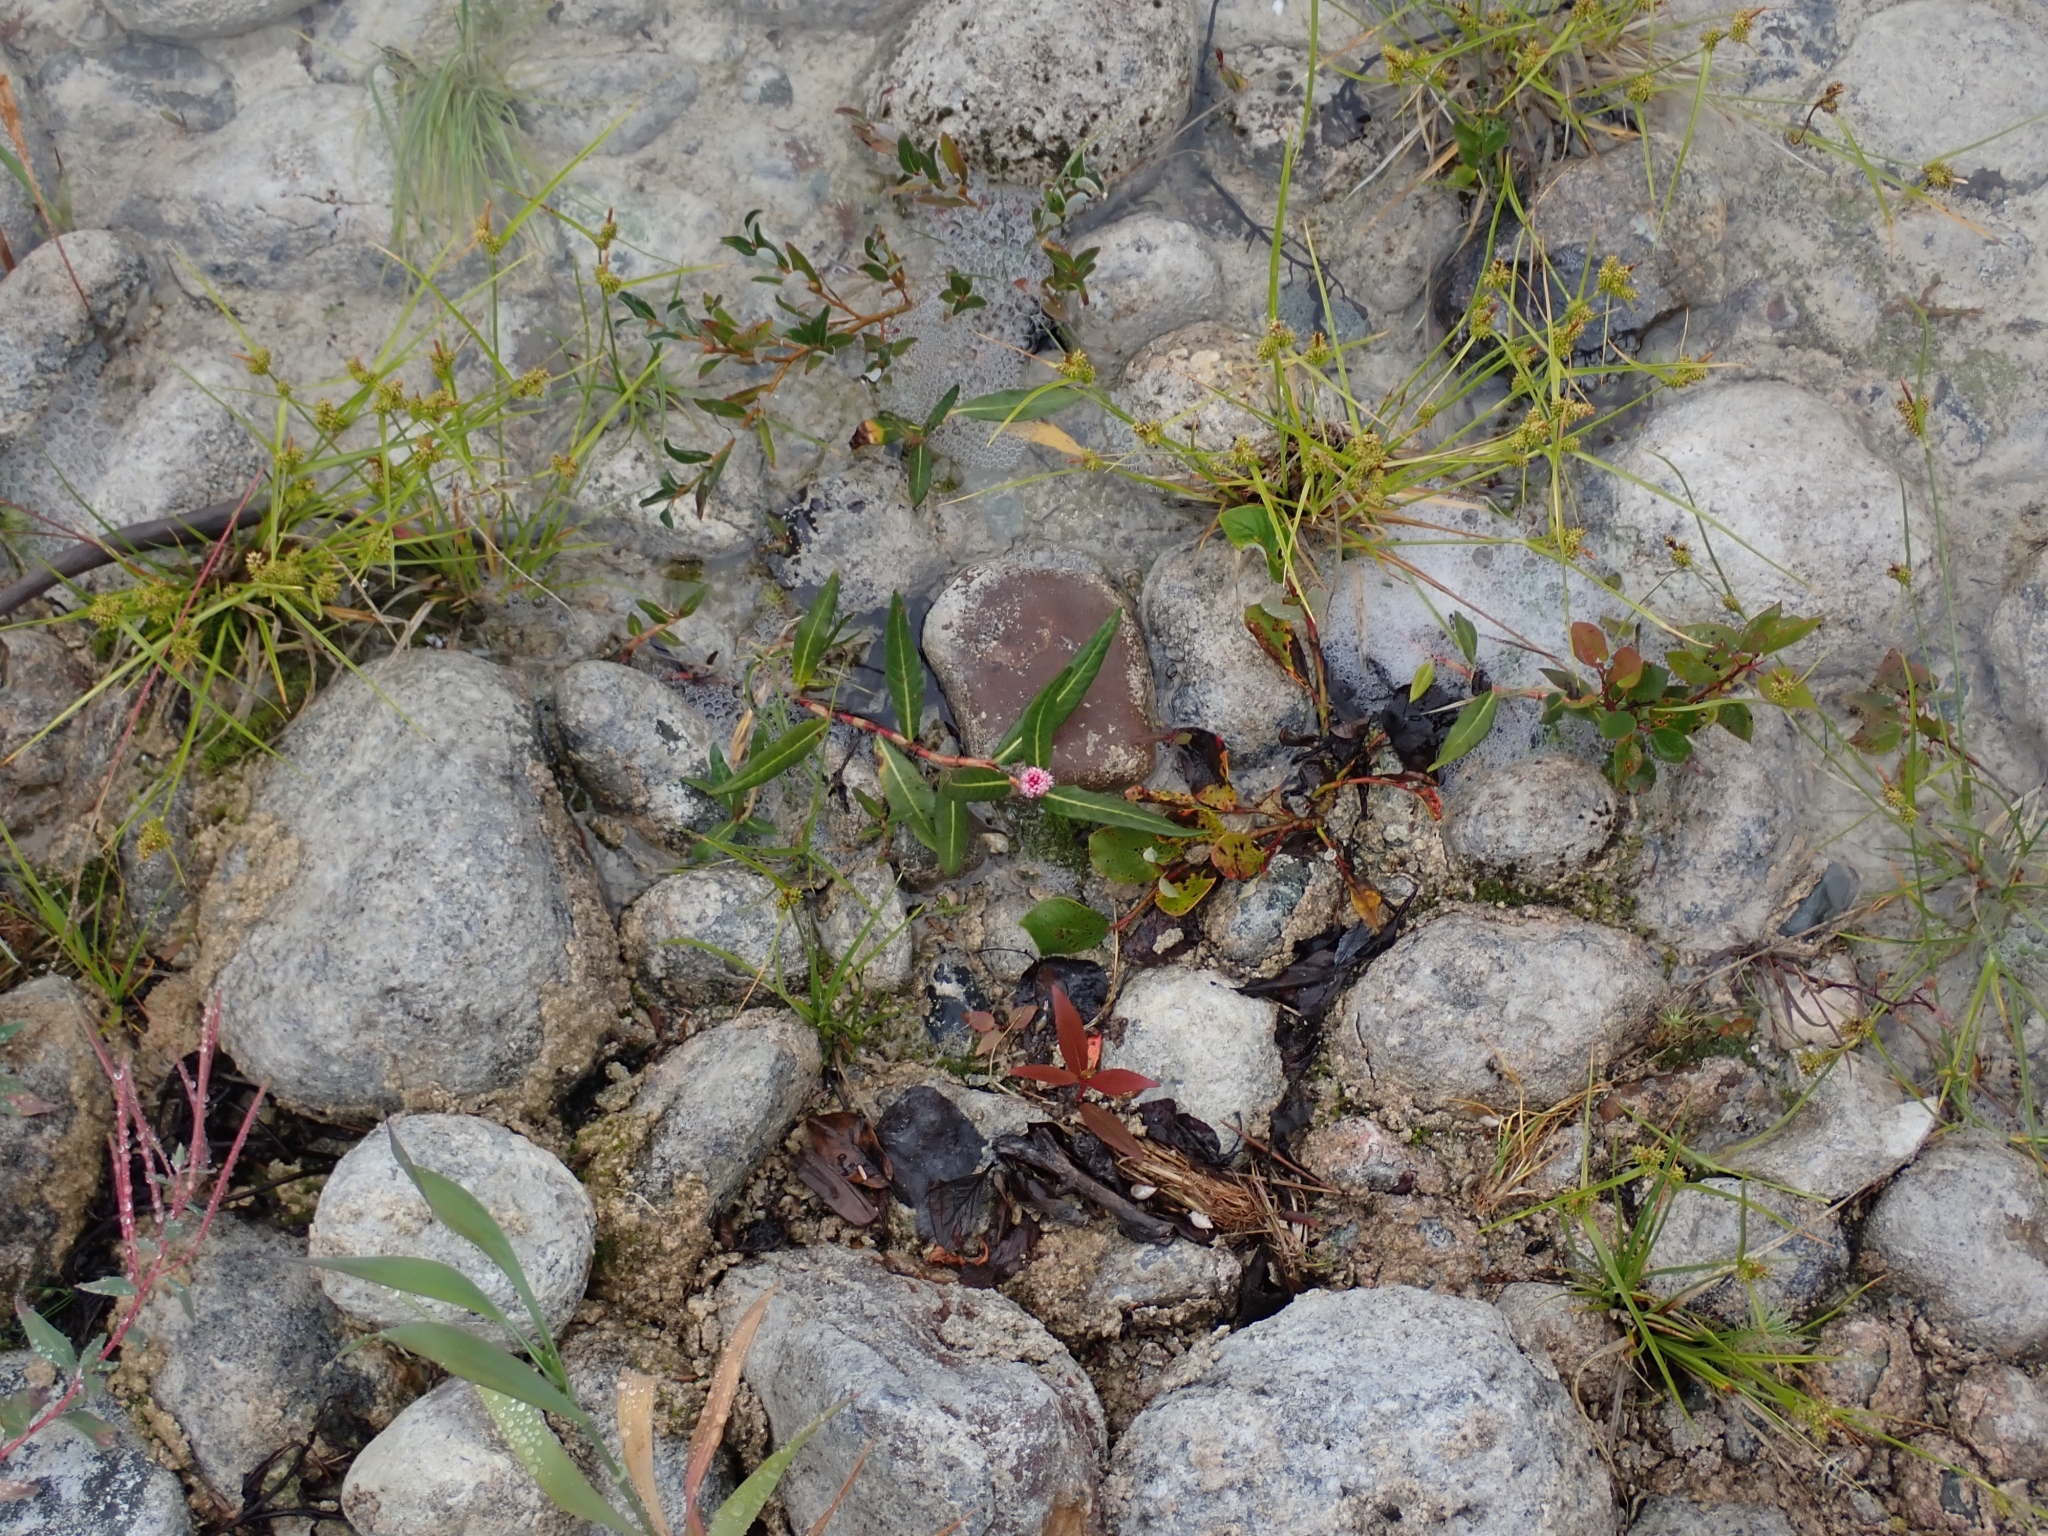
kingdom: Plantae
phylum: Tracheophyta
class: Magnoliopsida
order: Caryophyllales
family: Polygonaceae
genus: Persicaria
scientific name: Persicaria amphibia
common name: Amphibious bistort
